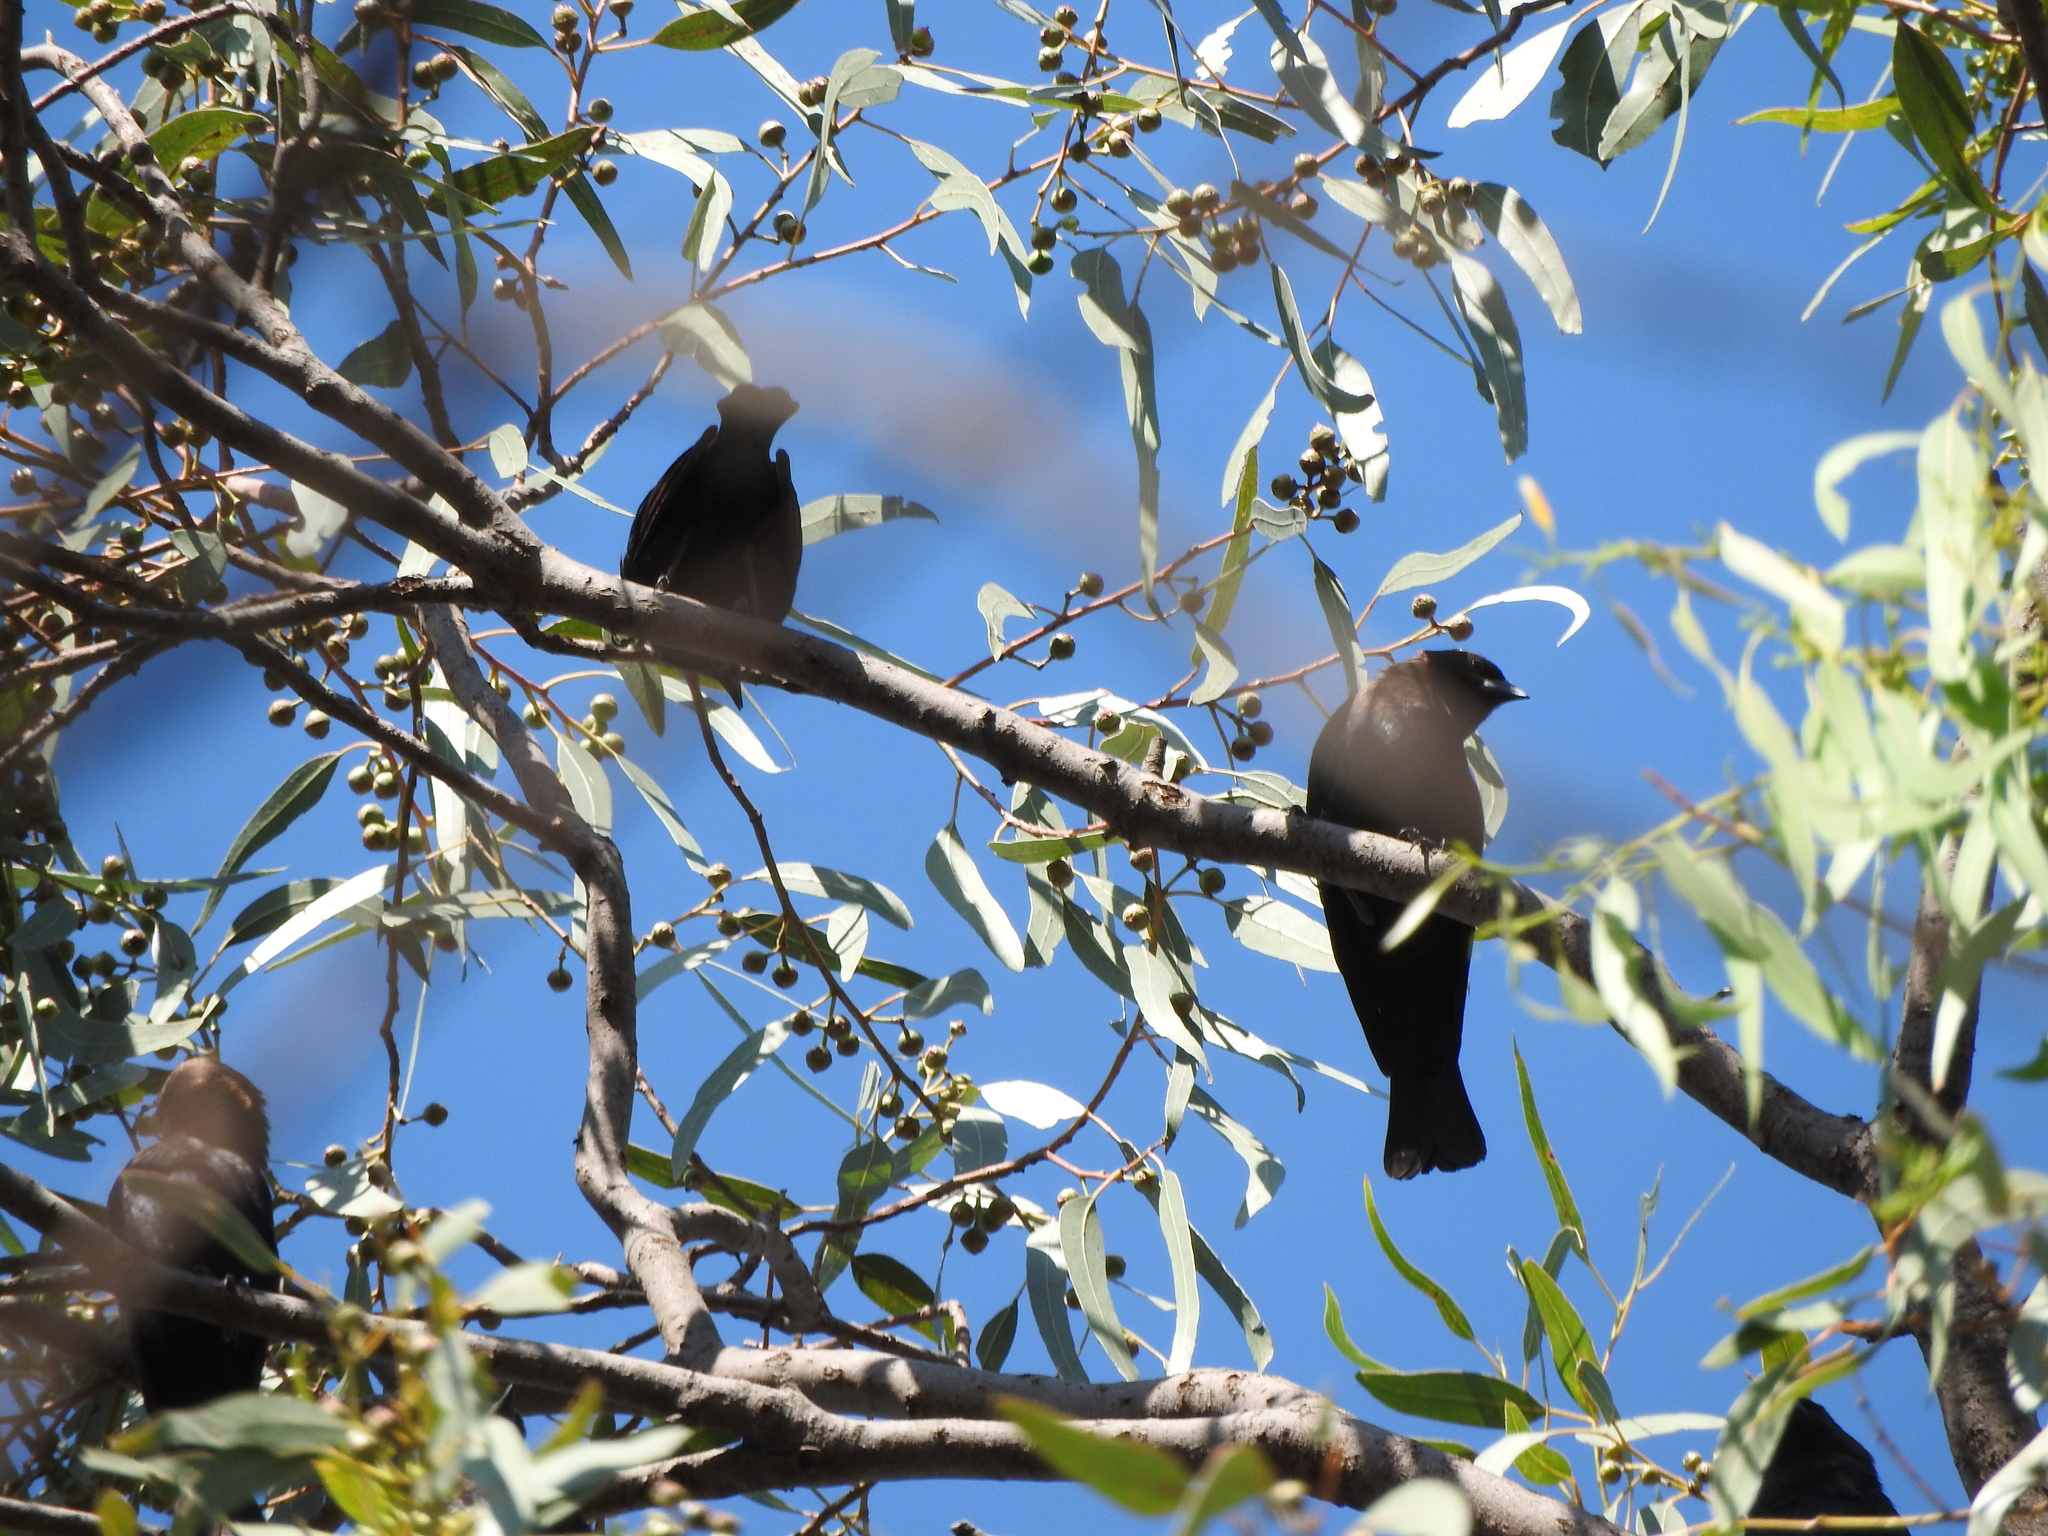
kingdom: Animalia
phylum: Chordata
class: Aves
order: Passeriformes
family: Icteridae
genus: Molothrus
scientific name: Molothrus ater
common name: Brown-headed cowbird
